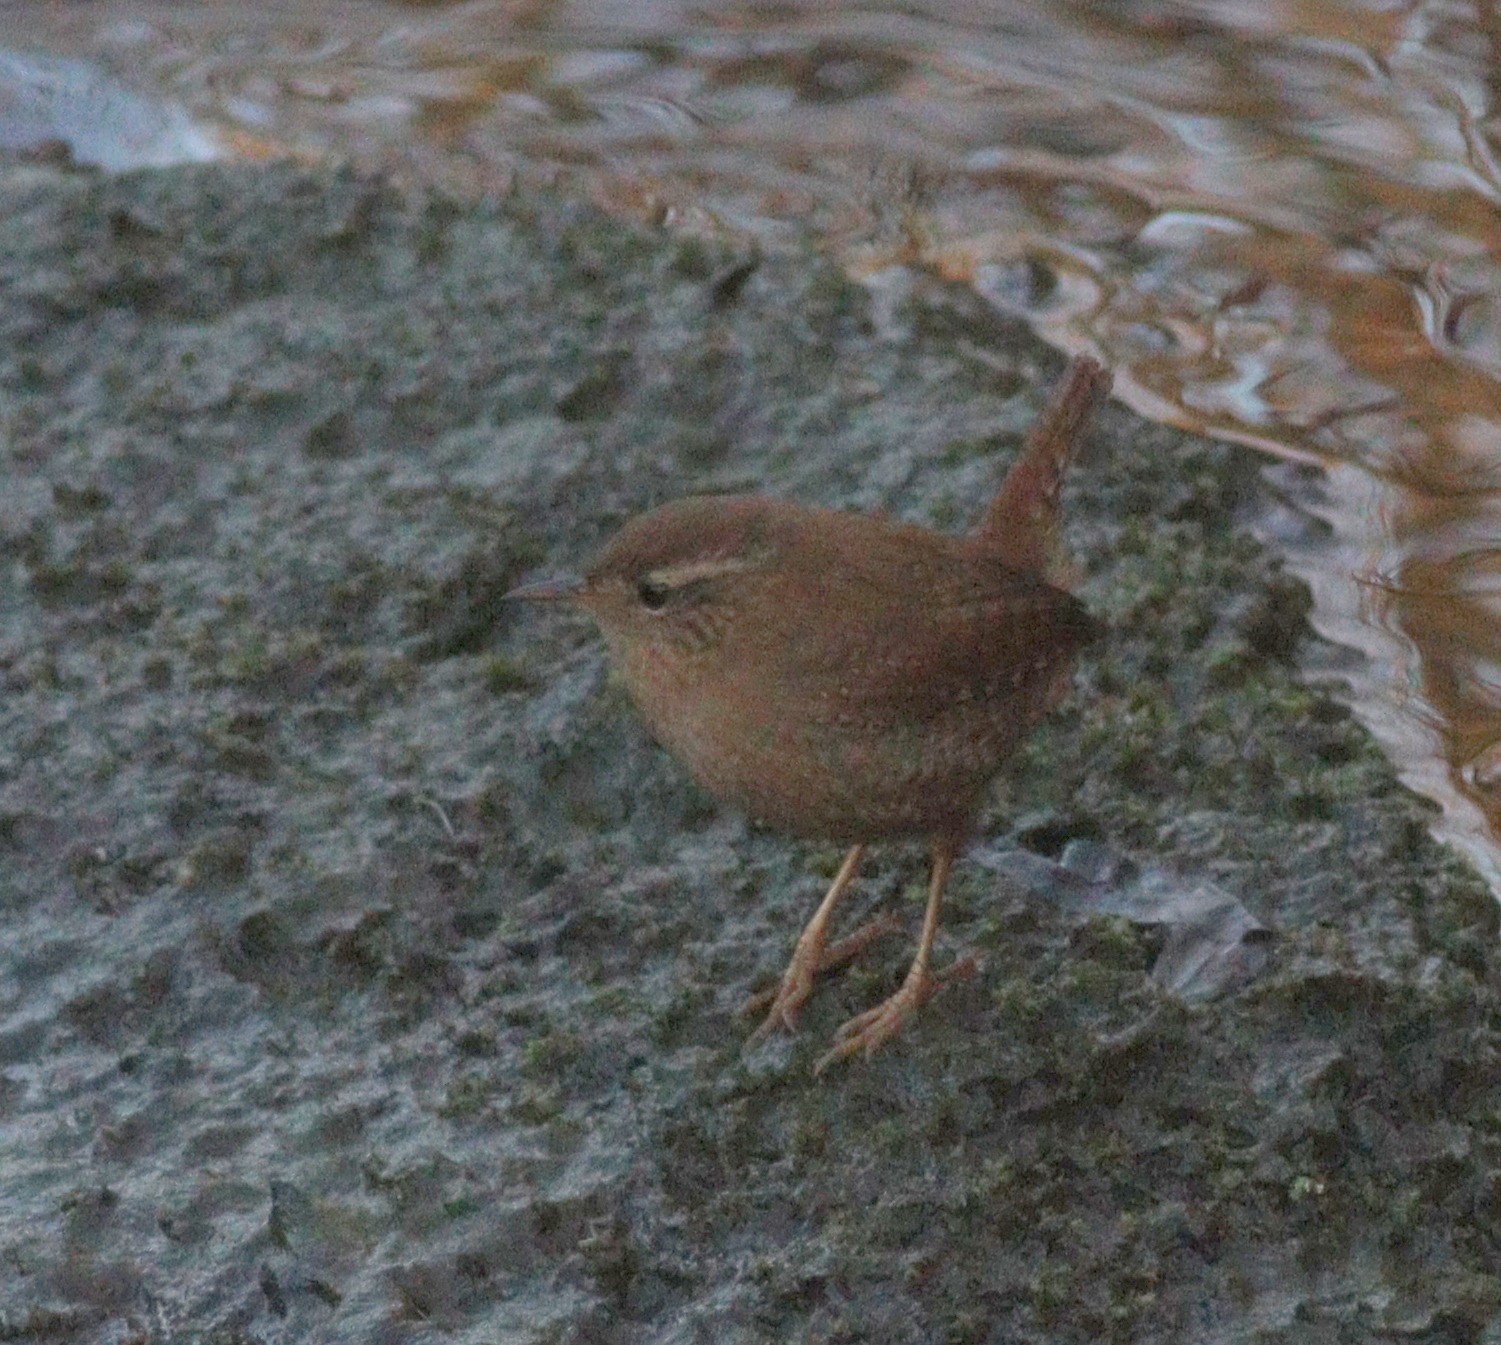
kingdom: Animalia
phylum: Chordata
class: Aves
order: Passeriformes
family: Troglodytidae
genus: Troglodytes
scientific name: Troglodytes troglodytes
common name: Eurasian wren
